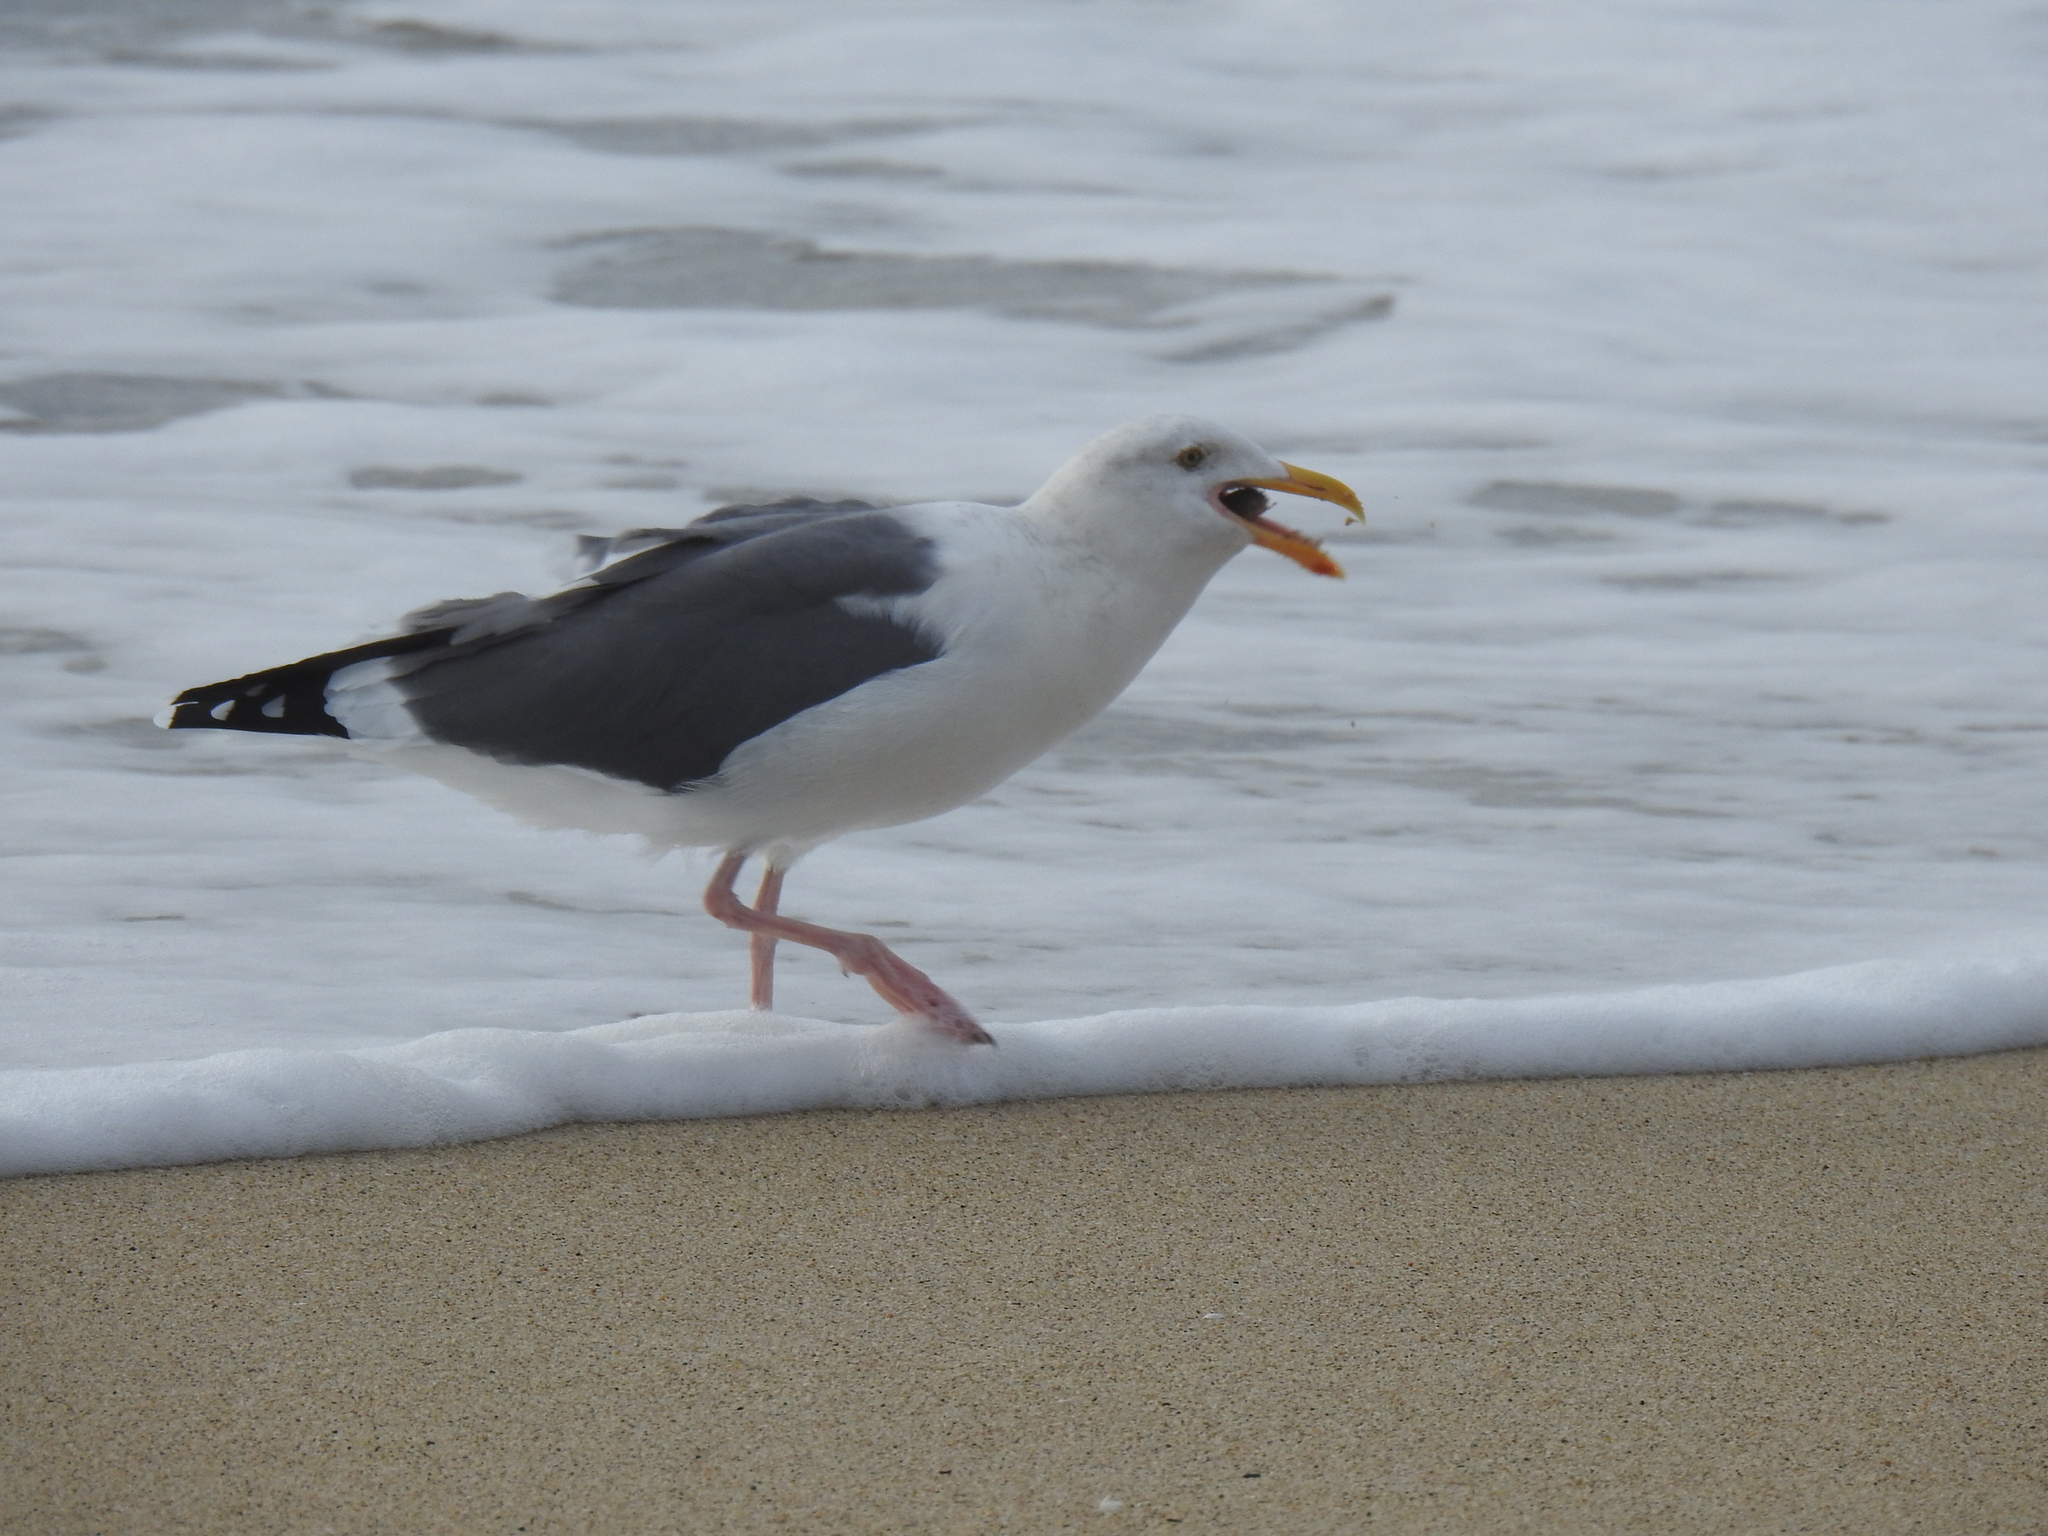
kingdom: Animalia
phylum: Chordata
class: Aves
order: Charadriiformes
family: Laridae
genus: Larus
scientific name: Larus occidentalis
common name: Western gull
